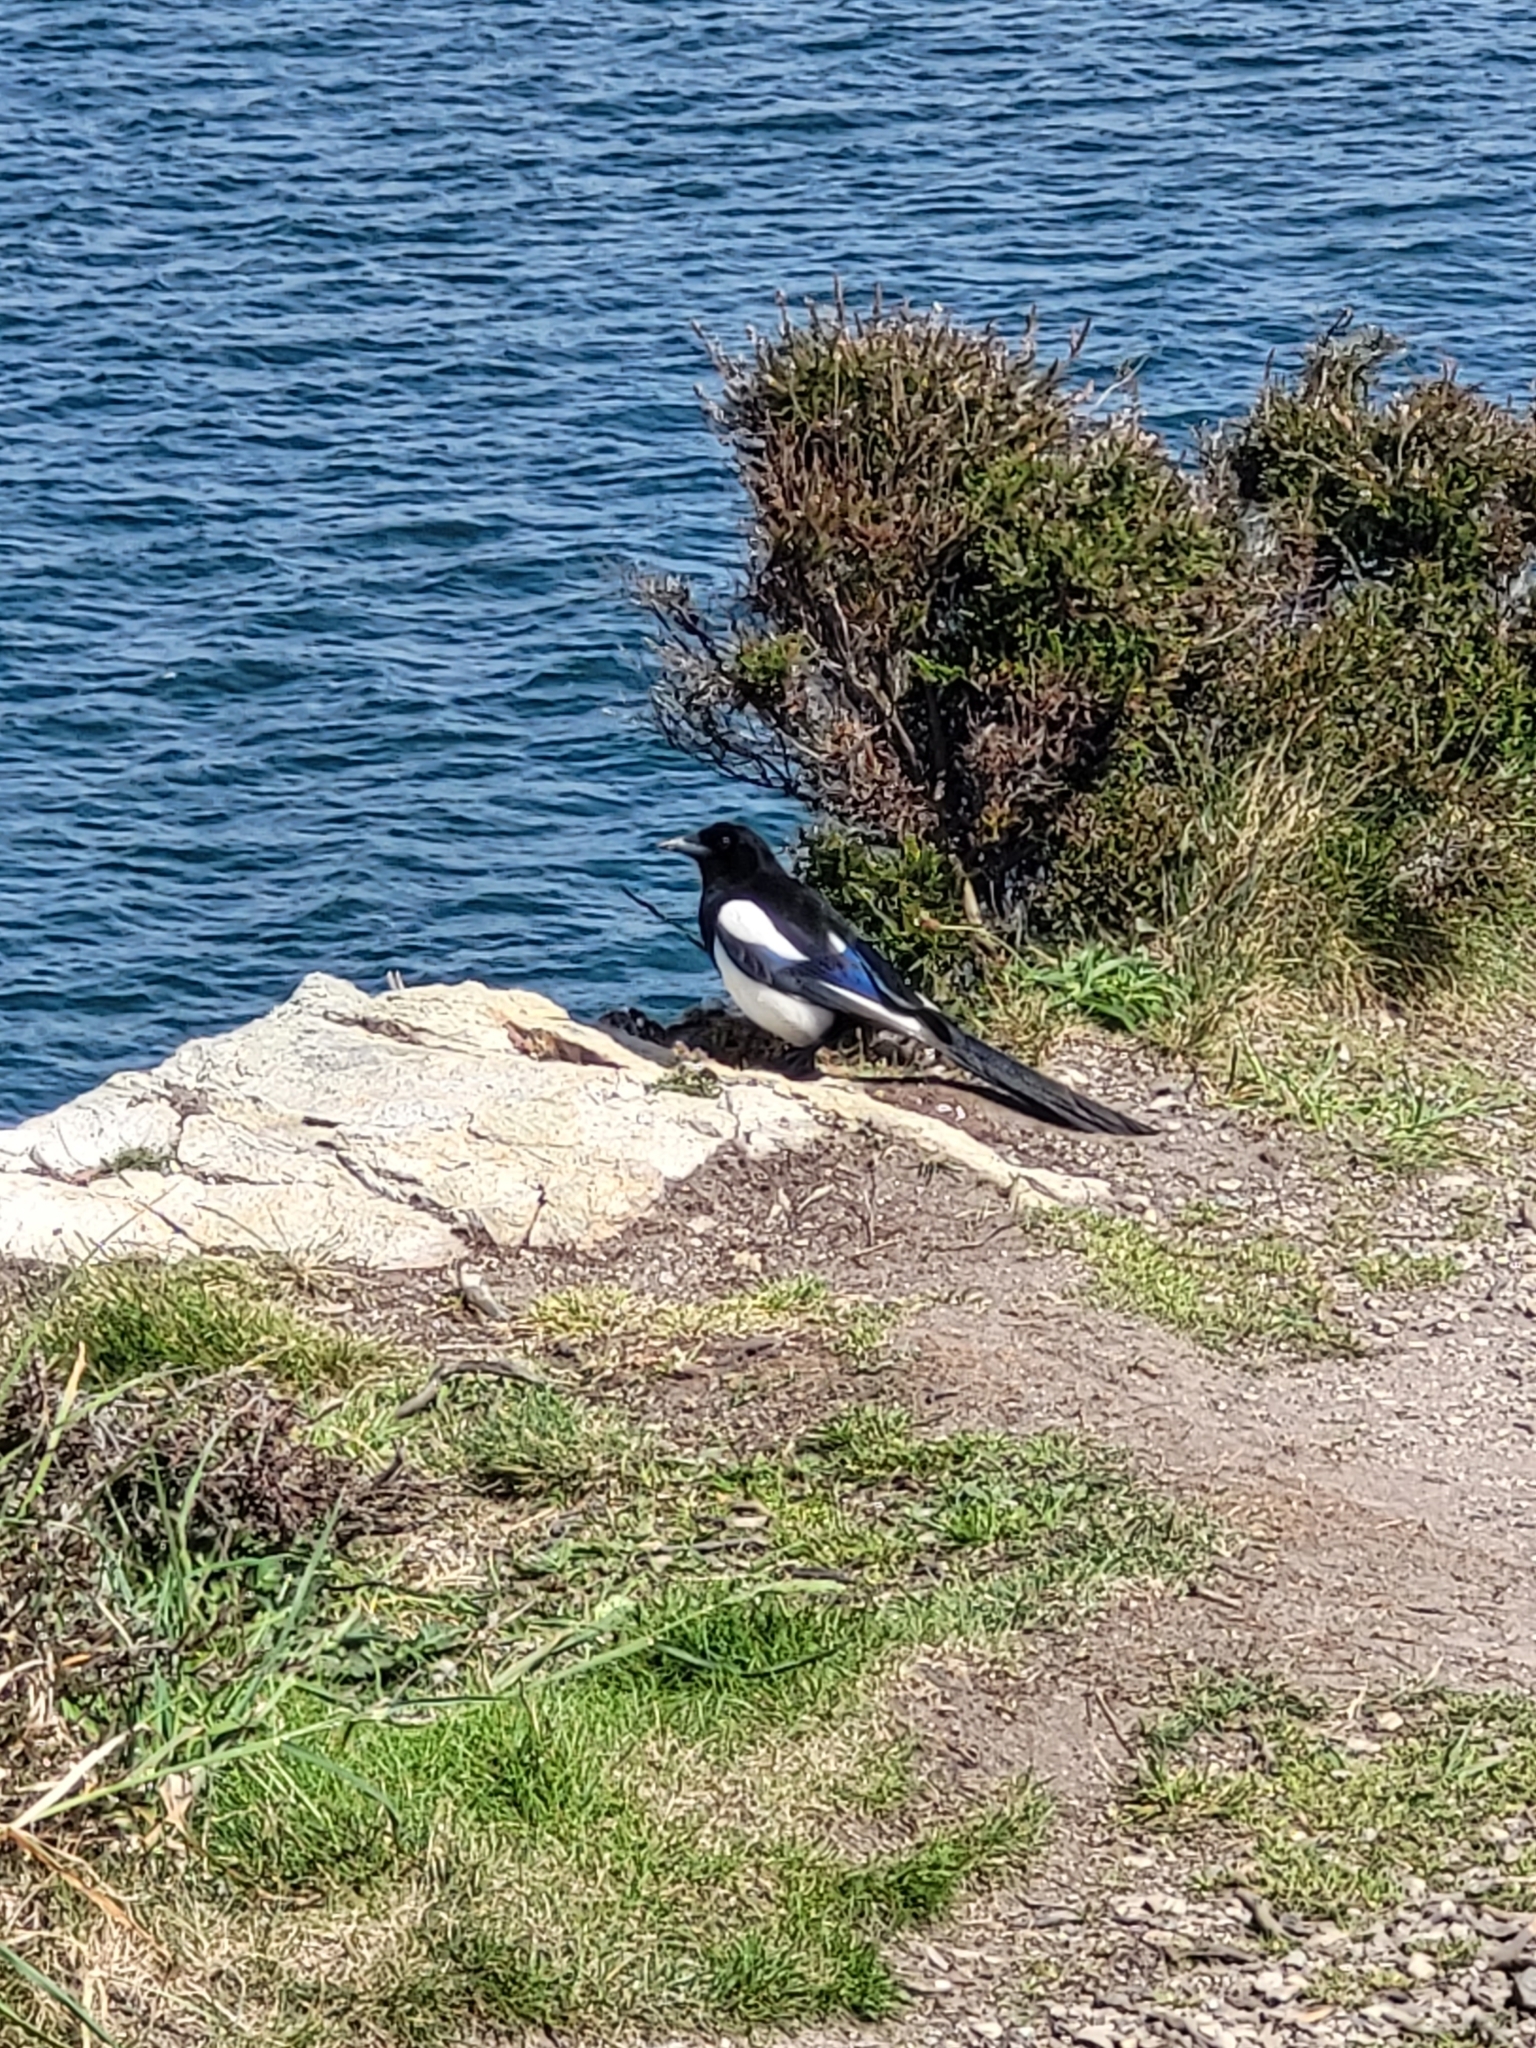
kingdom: Animalia
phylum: Chordata
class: Aves
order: Passeriformes
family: Corvidae
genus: Pica
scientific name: Pica pica
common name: Eurasian magpie
